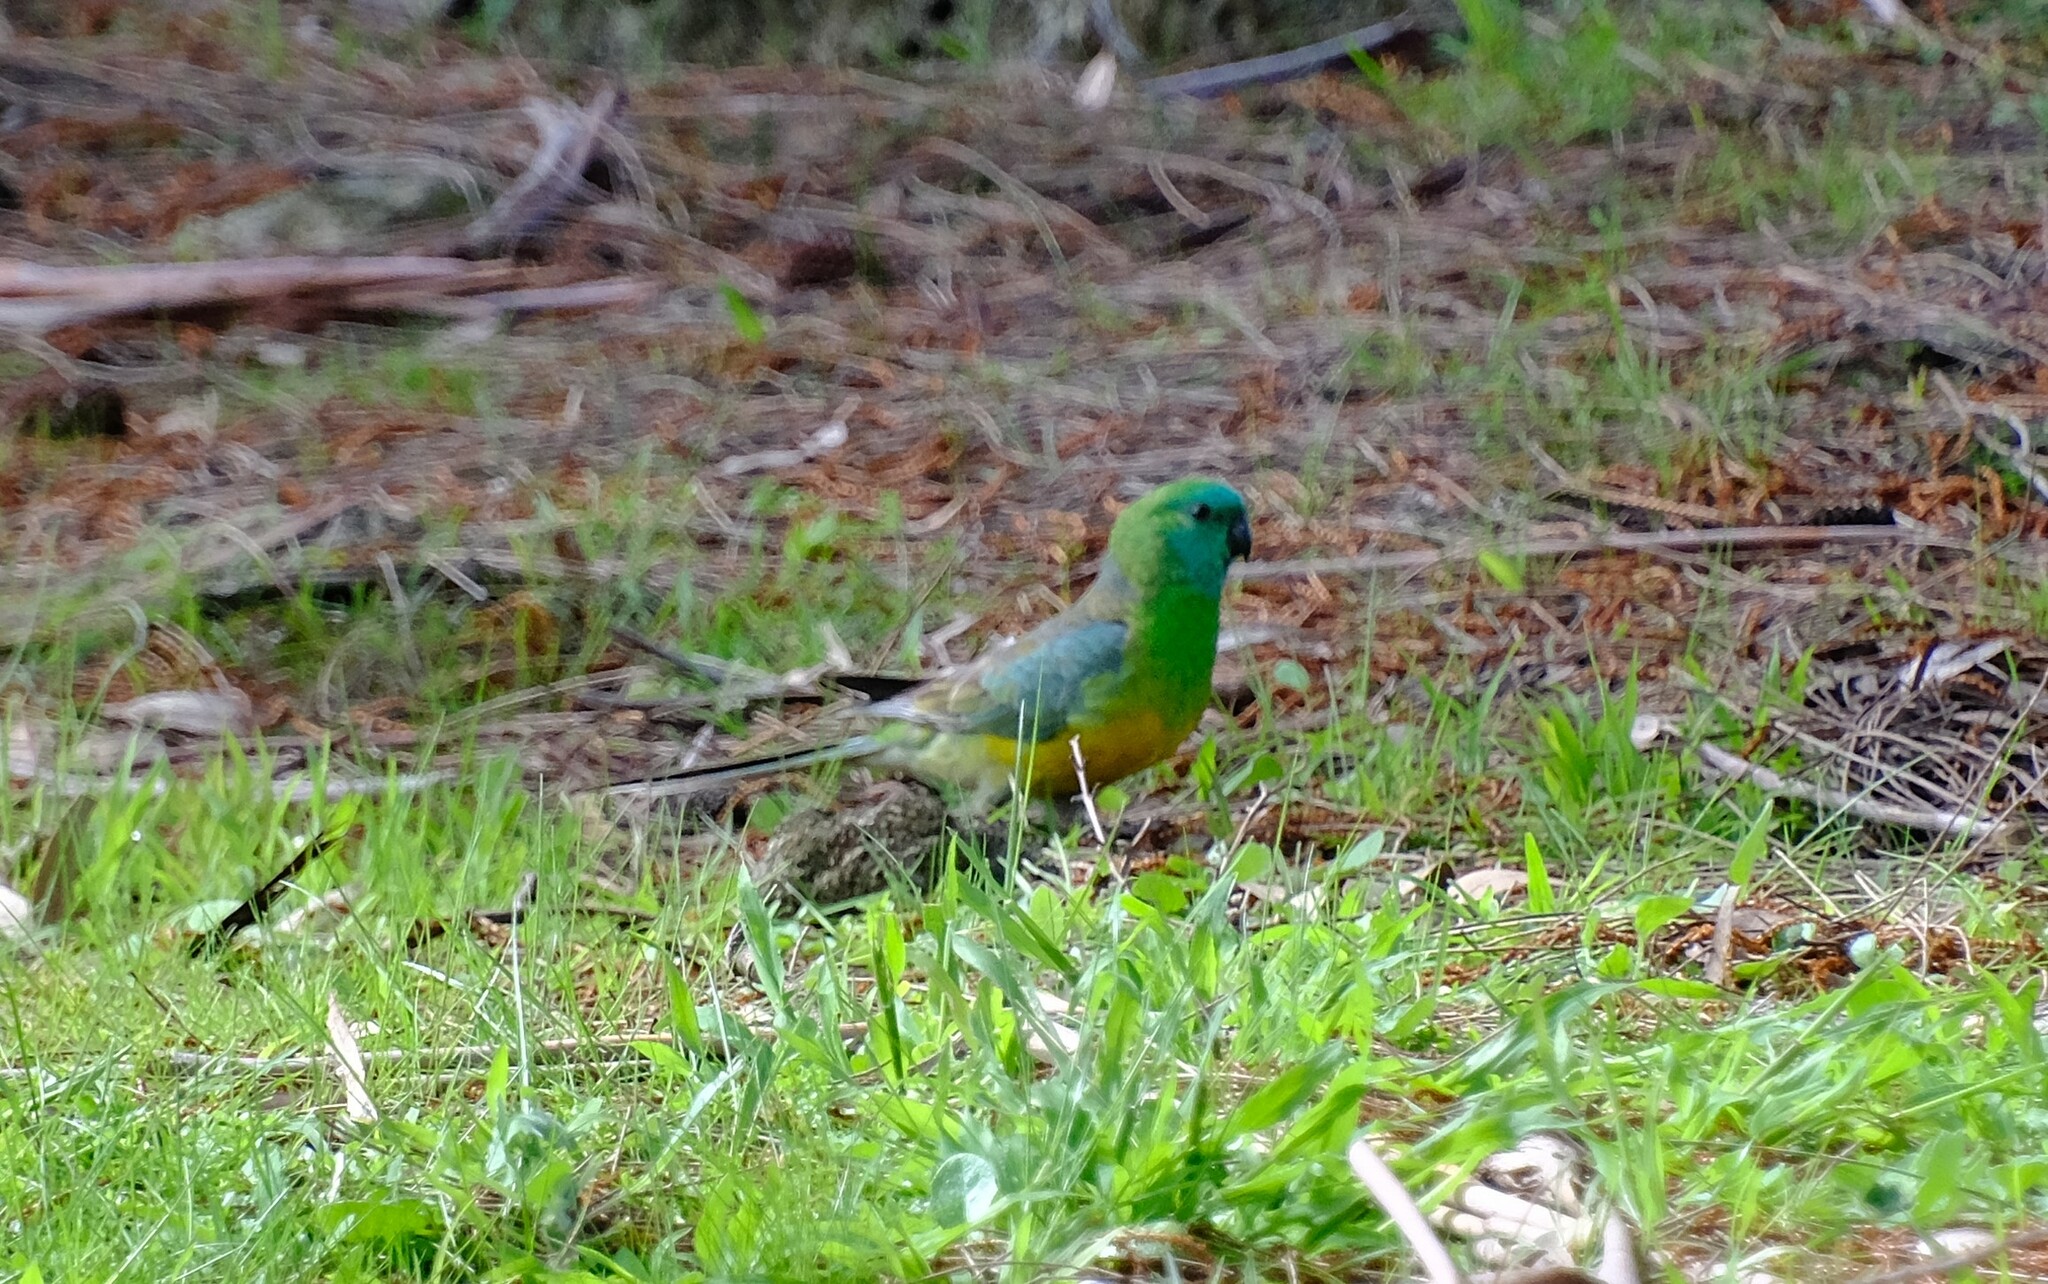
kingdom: Animalia
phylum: Chordata
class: Aves
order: Psittaciformes
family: Psittacidae
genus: Psephotus
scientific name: Psephotus haematonotus
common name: Red-rumped parrot
